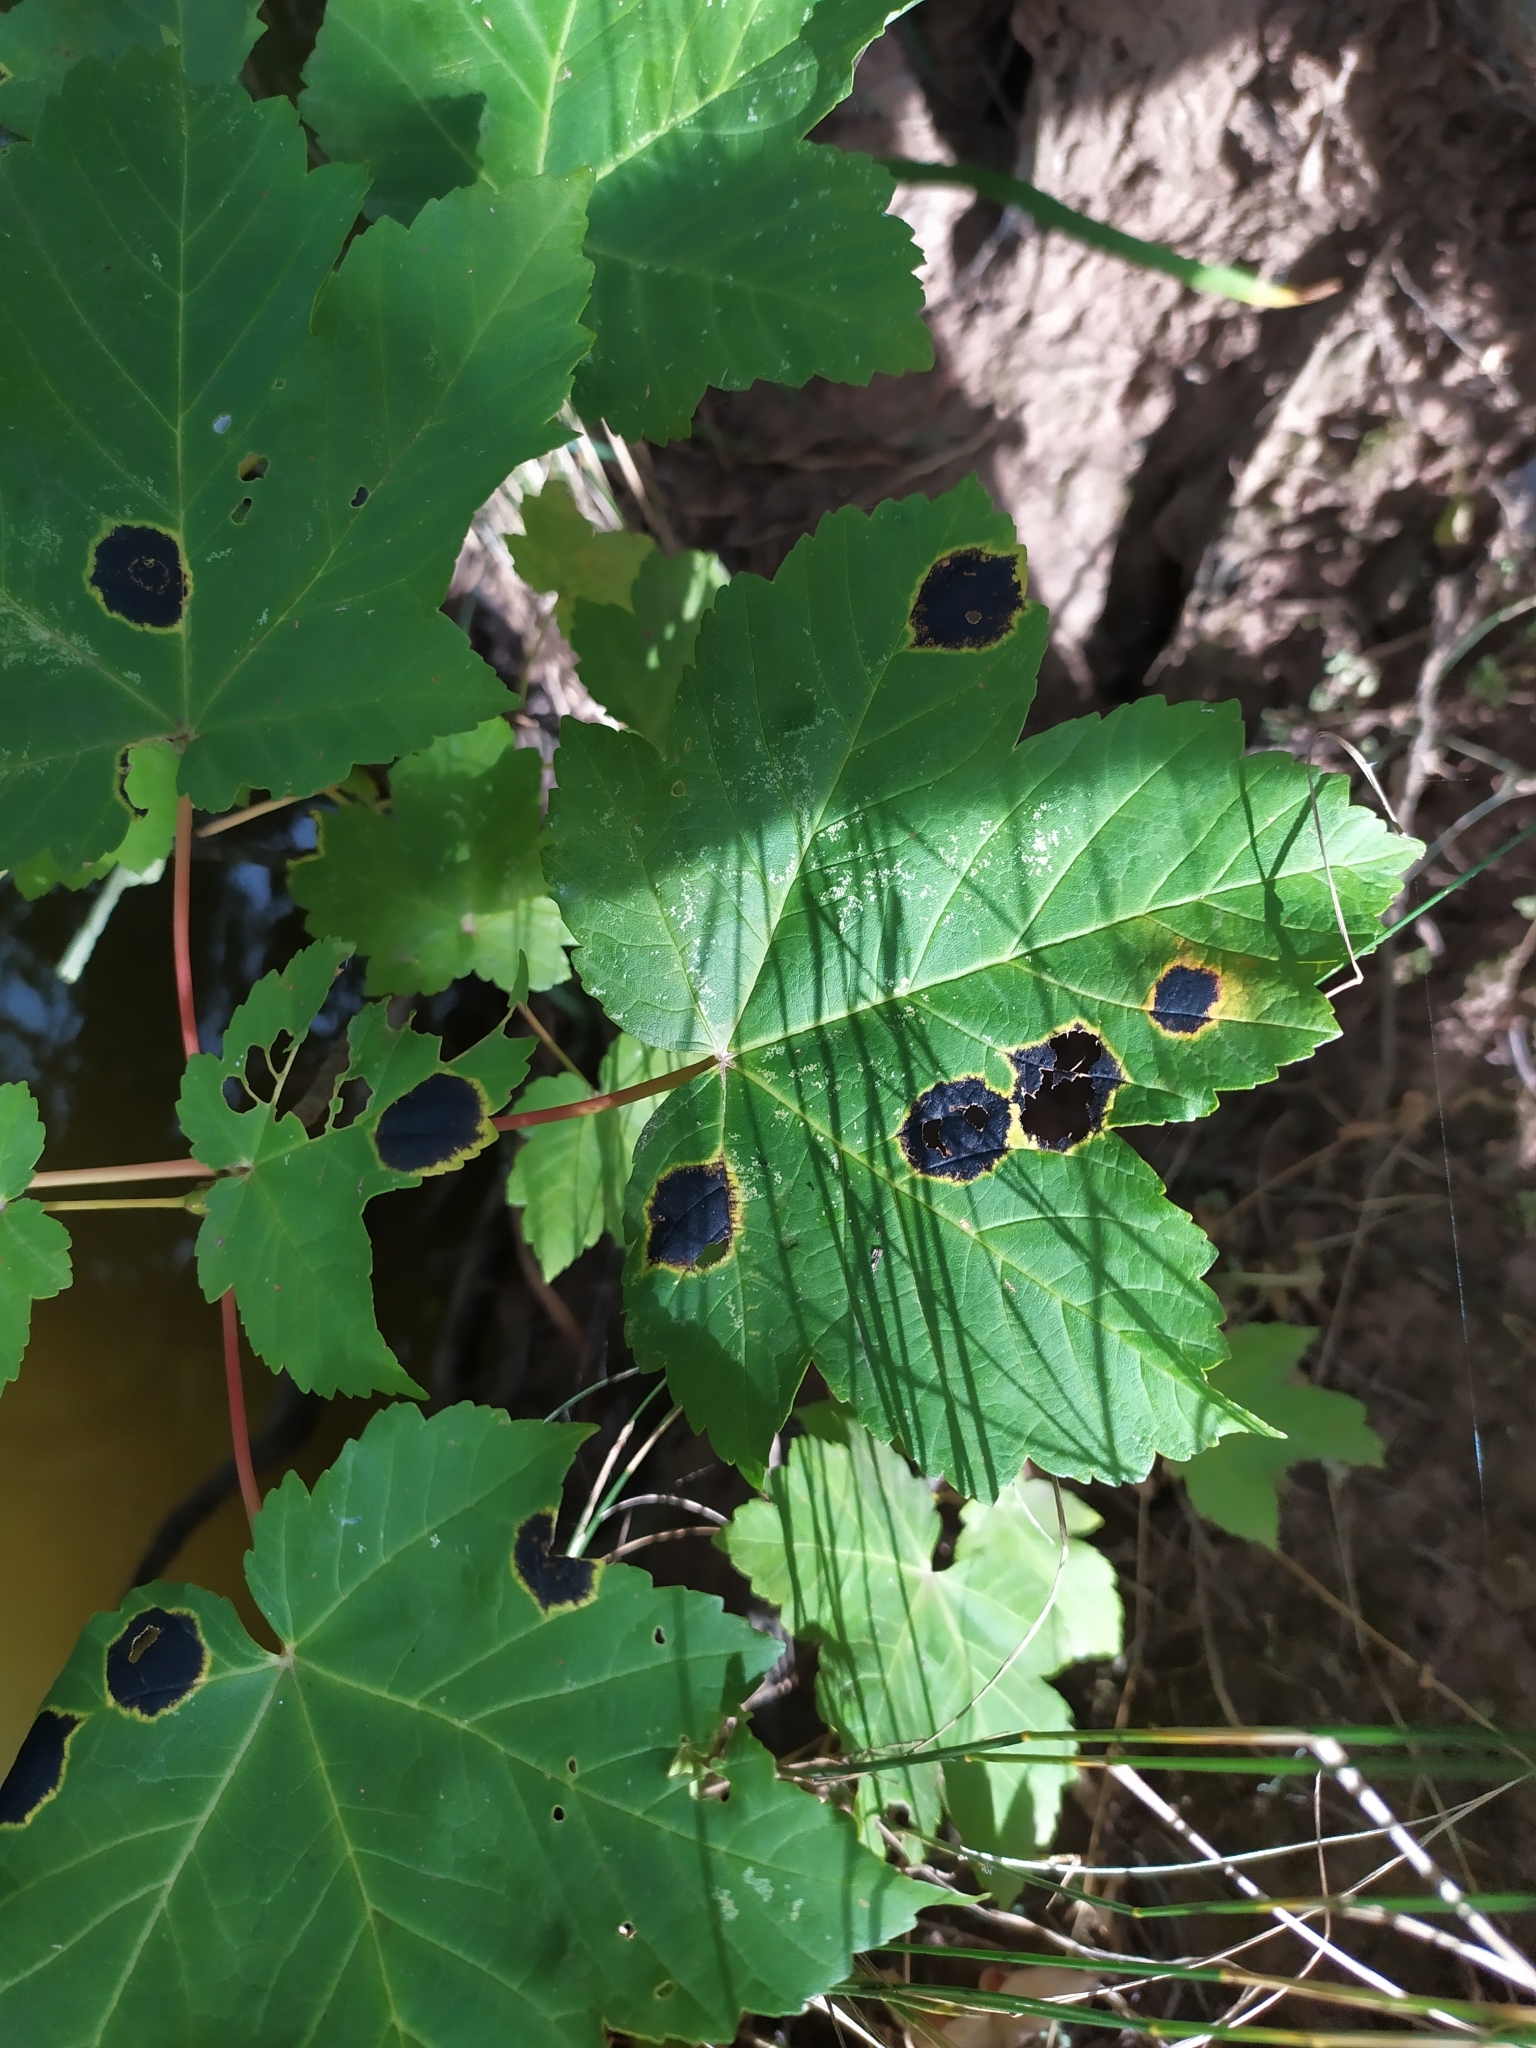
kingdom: Fungi
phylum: Ascomycota
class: Leotiomycetes
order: Rhytismatales
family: Rhytismataceae
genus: Rhytisma
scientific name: Rhytisma acerinum
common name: European tar spot
